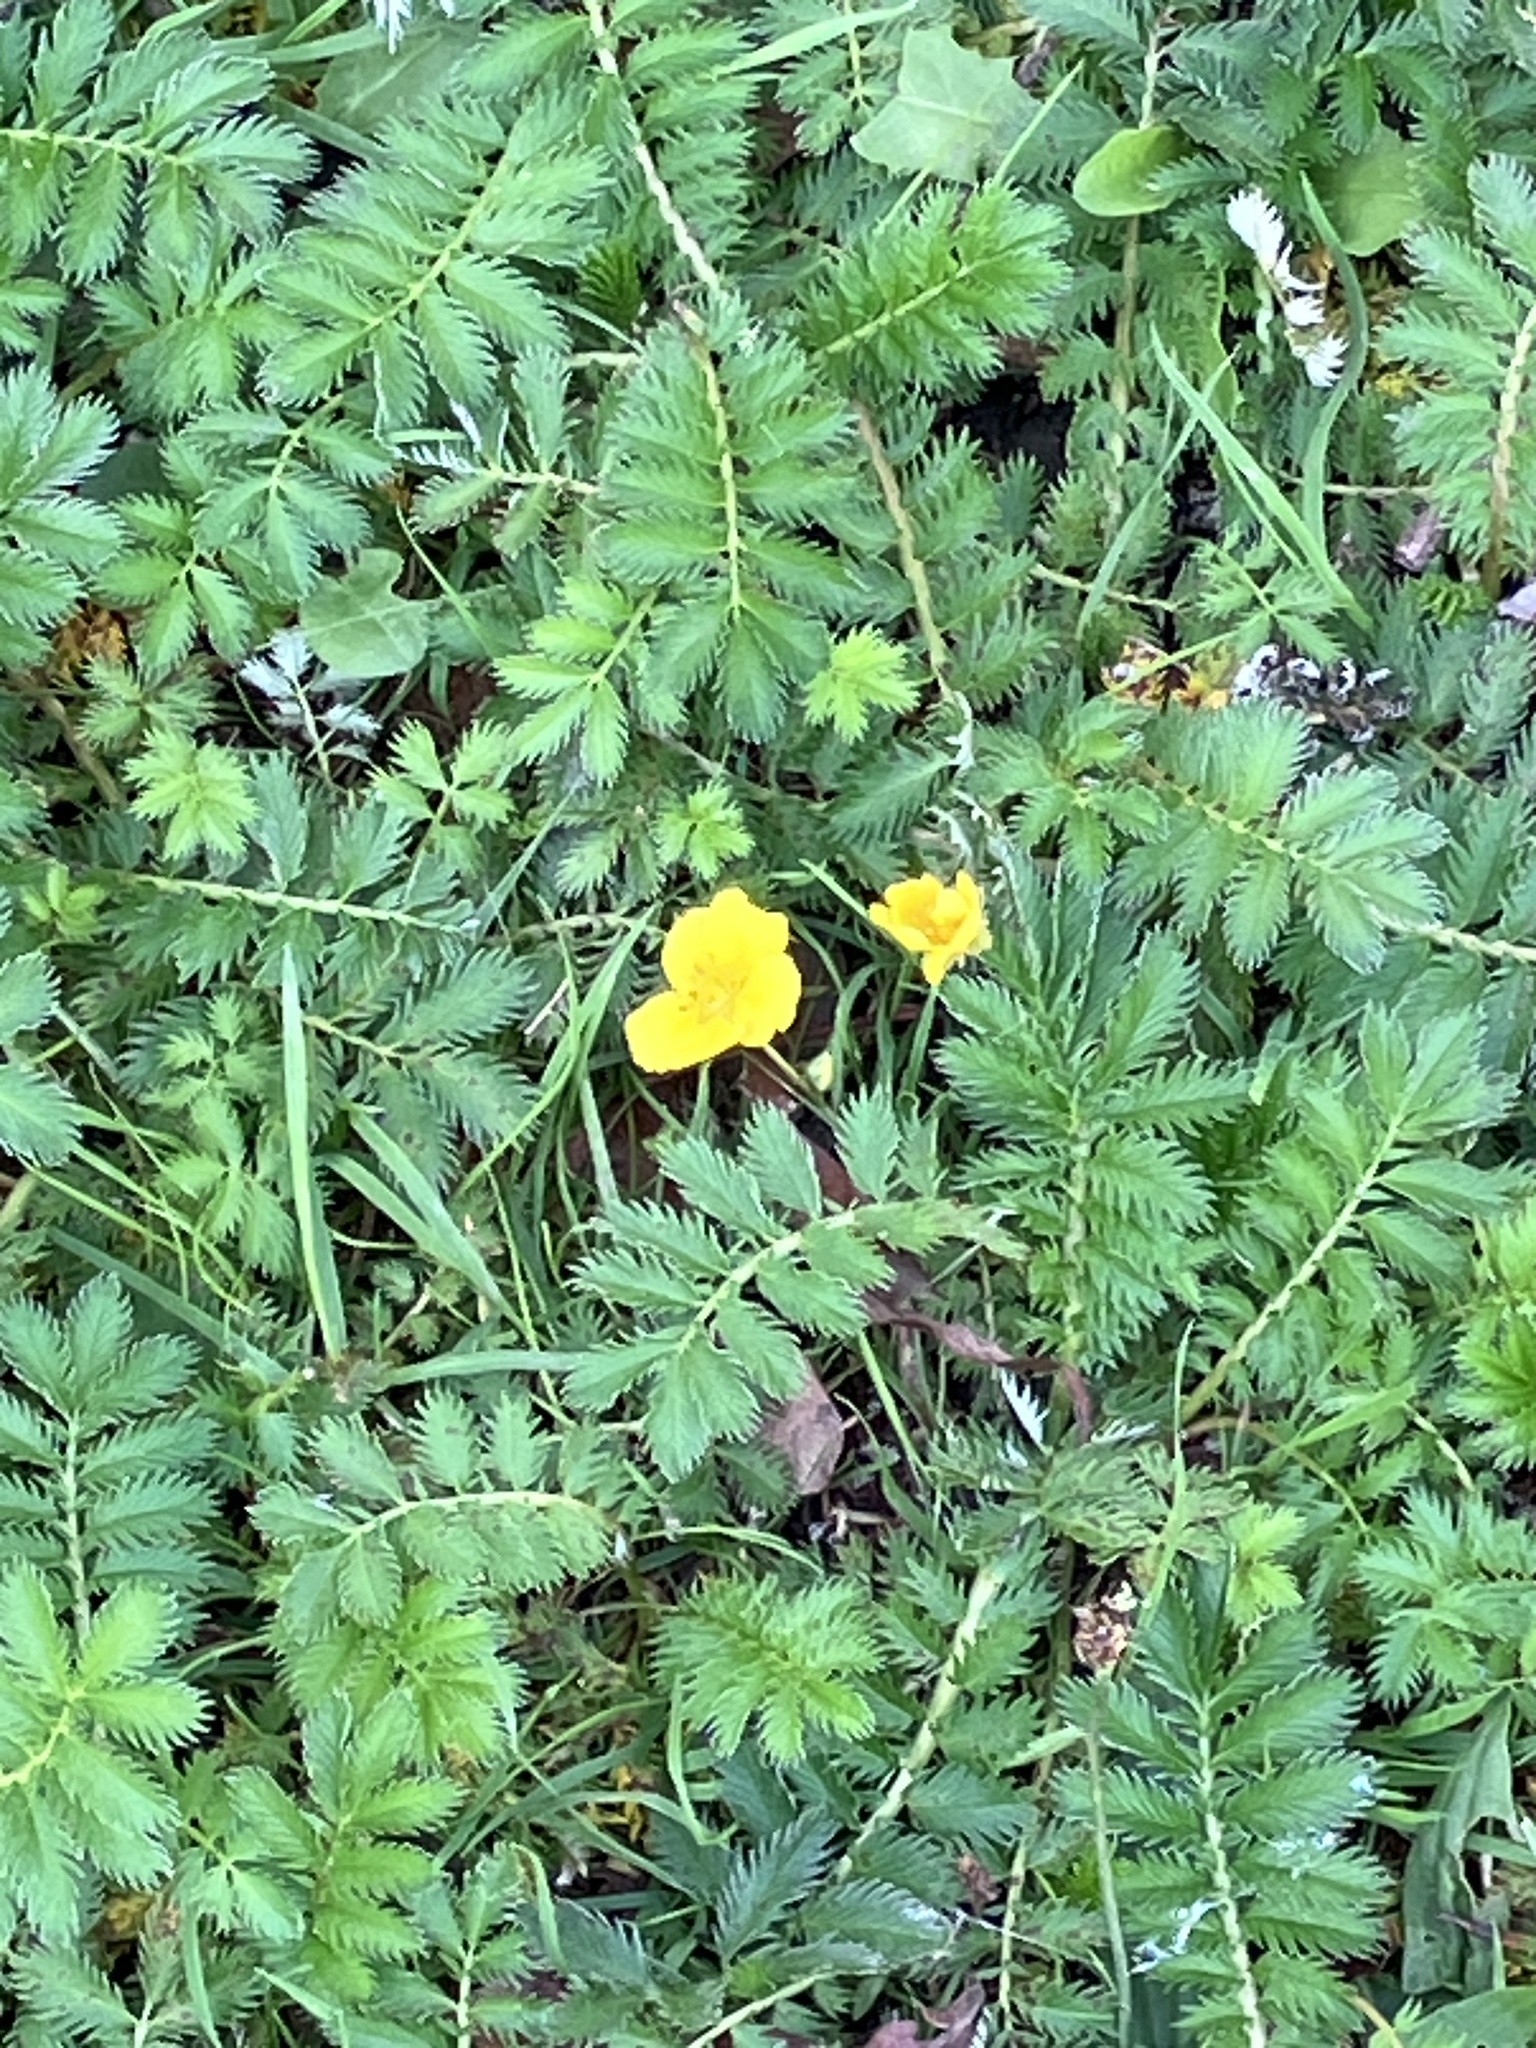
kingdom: Plantae
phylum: Tracheophyta
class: Magnoliopsida
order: Rosales
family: Rosaceae
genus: Argentina
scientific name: Argentina anserina
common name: Common silverweed
